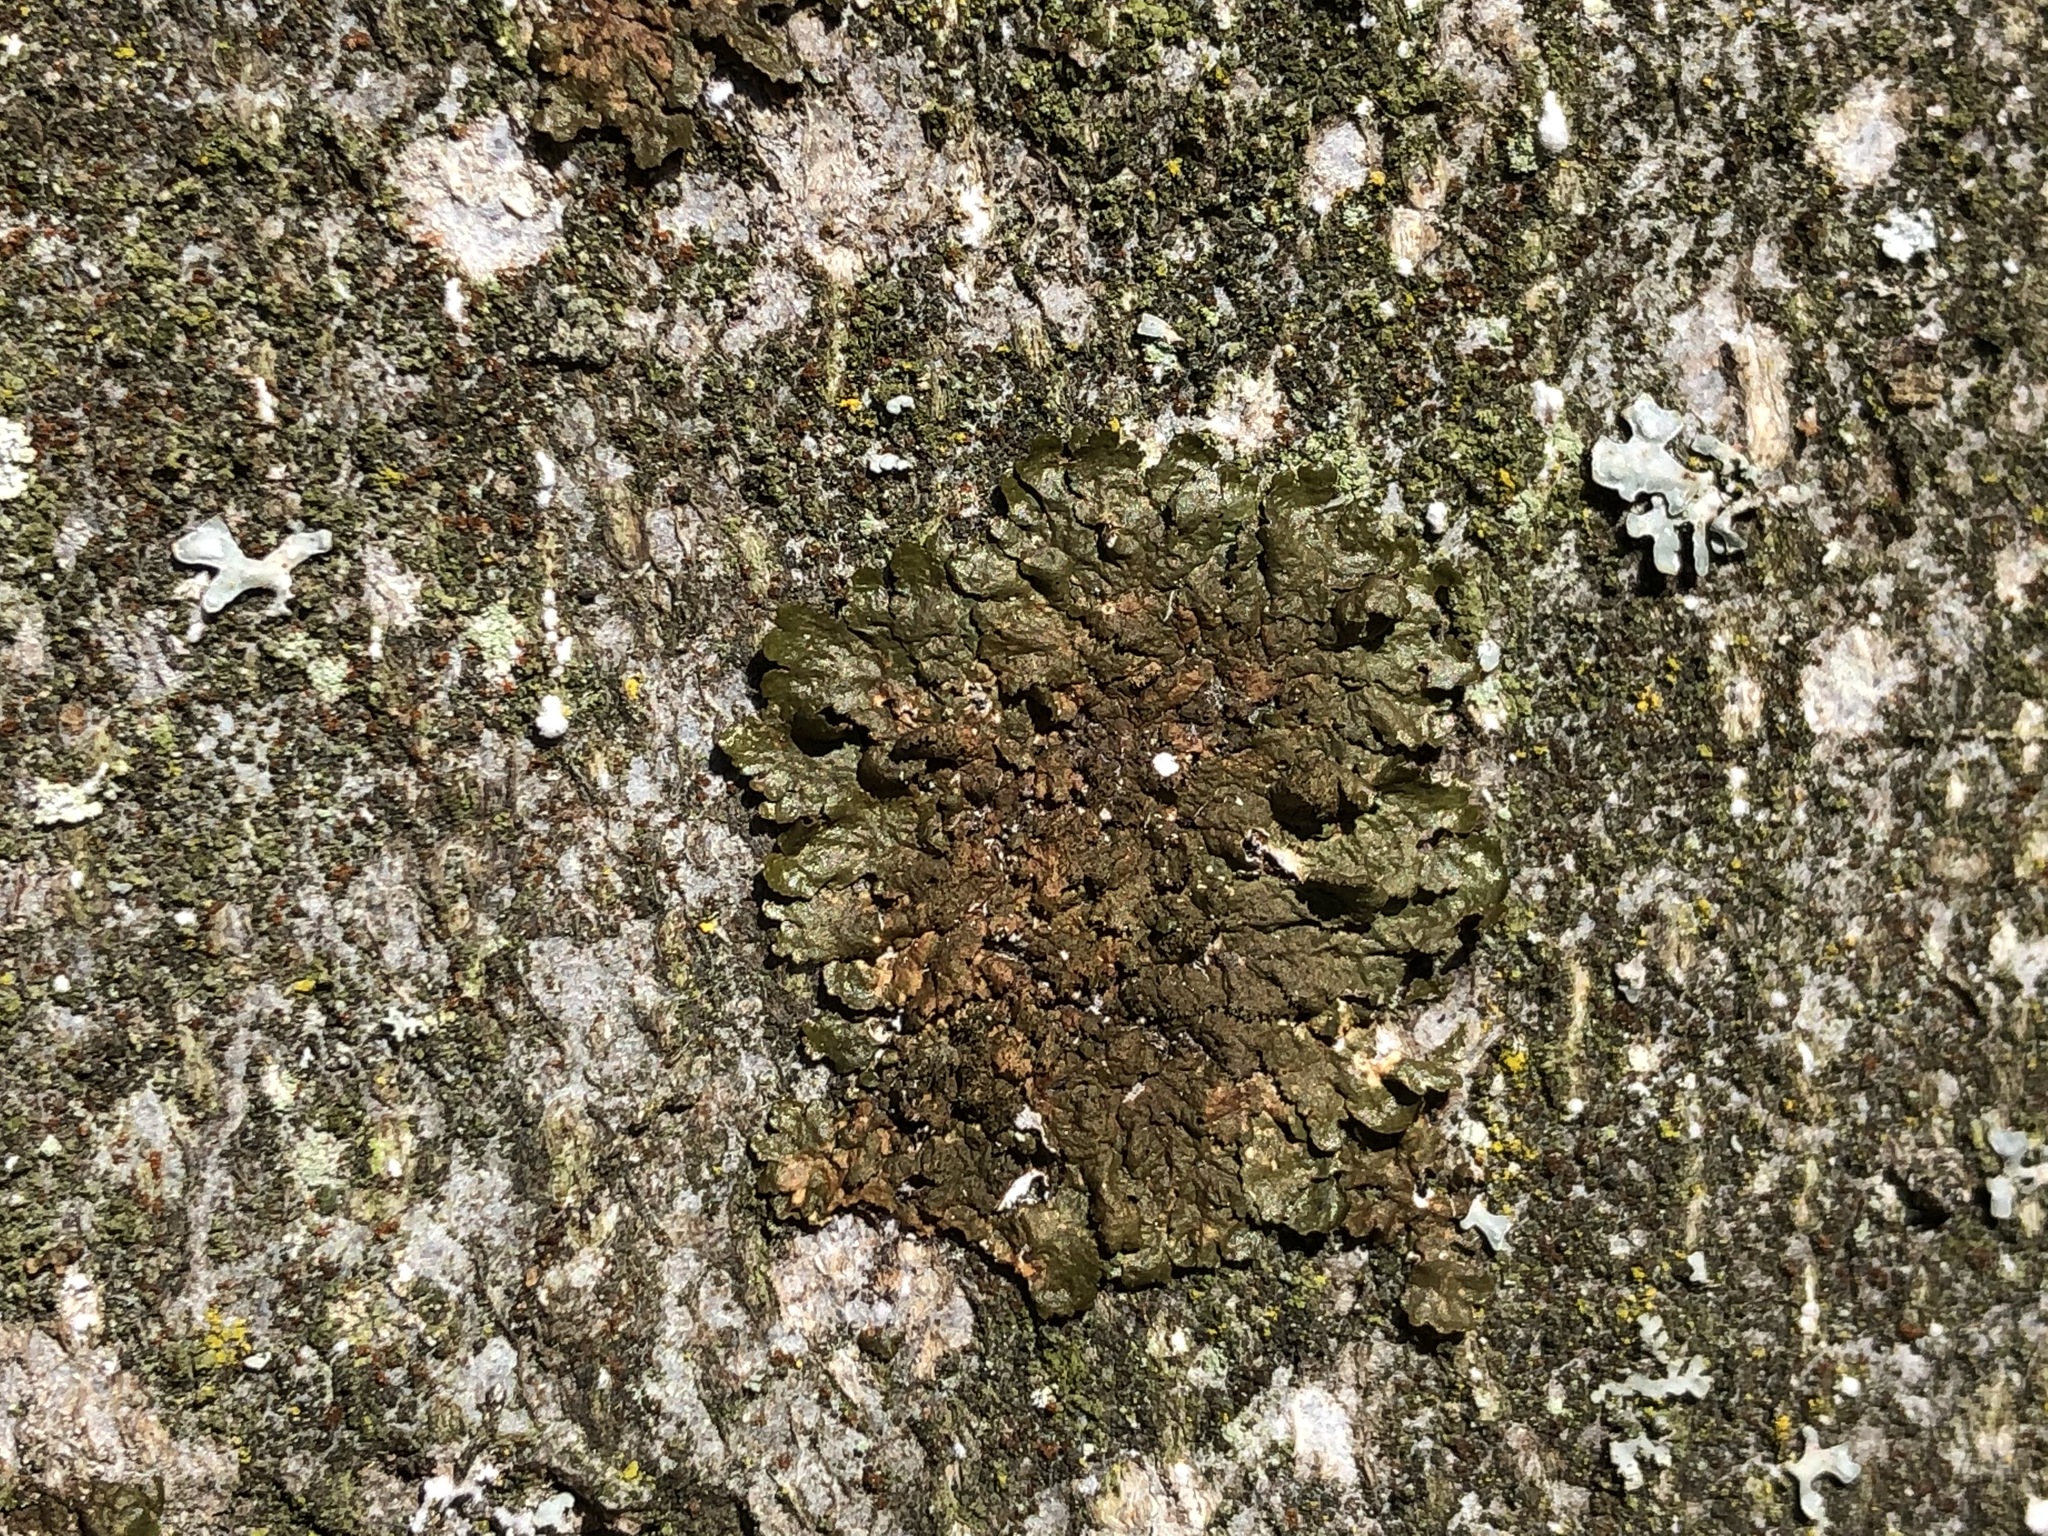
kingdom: Fungi
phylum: Ascomycota
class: Lecanoromycetes
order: Lecanorales
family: Parmeliaceae
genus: Melanelixia
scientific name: Melanelixia glabratula
